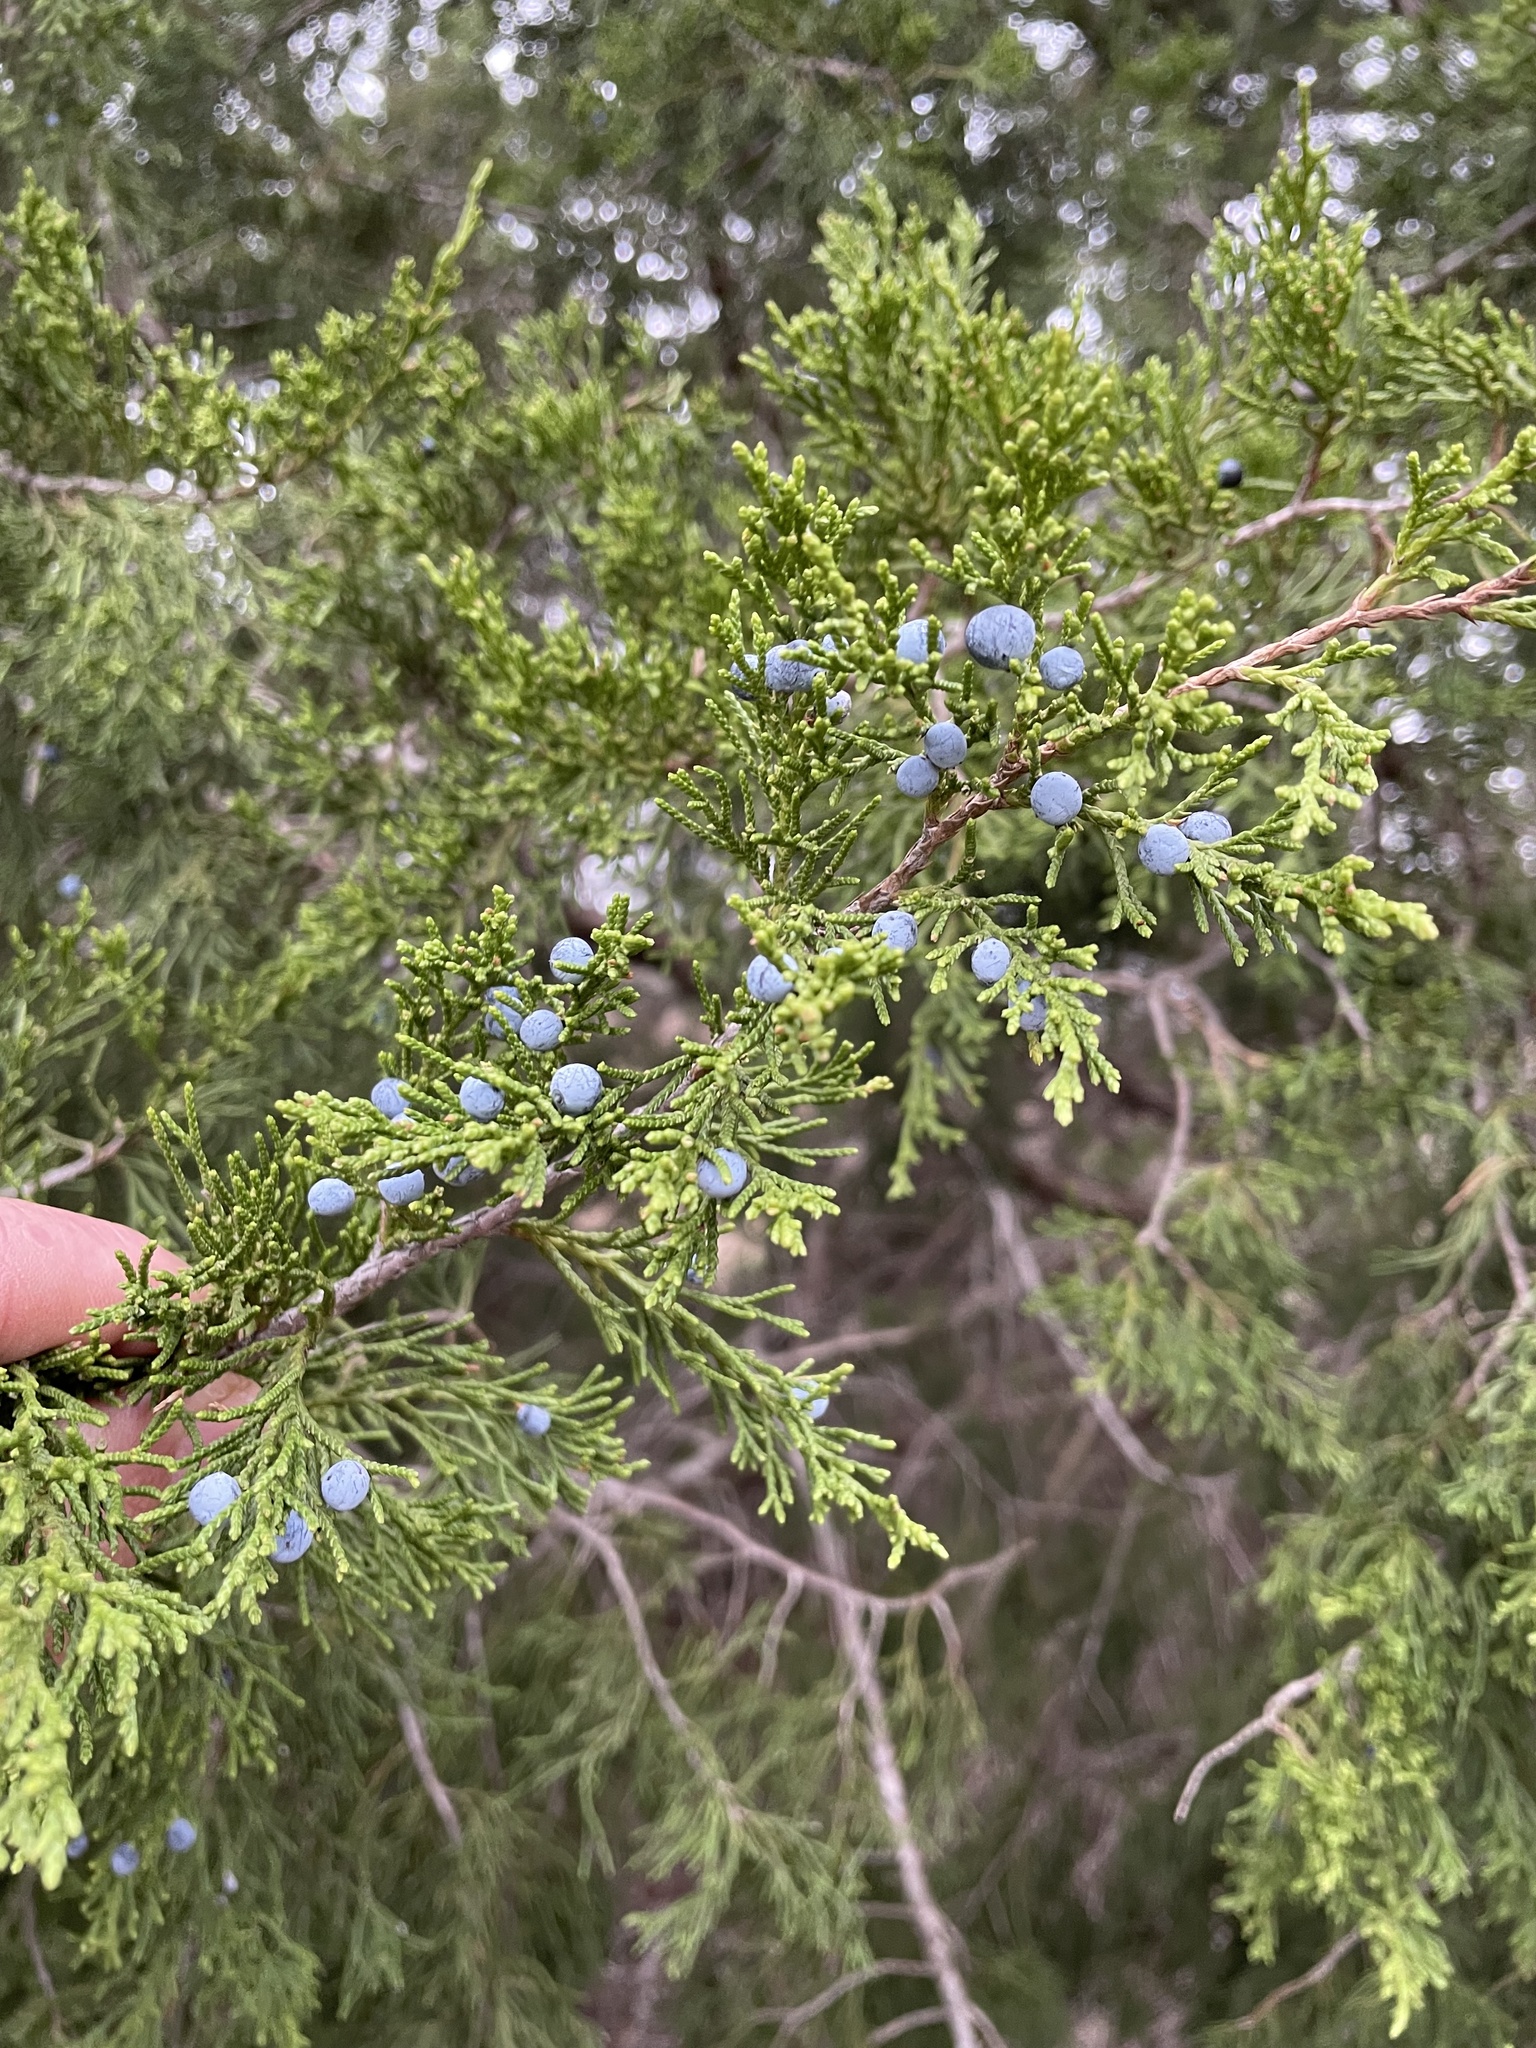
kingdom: Plantae
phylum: Tracheophyta
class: Pinopsida
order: Pinales
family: Cupressaceae
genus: Juniperus
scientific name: Juniperus virginiana
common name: Red juniper
